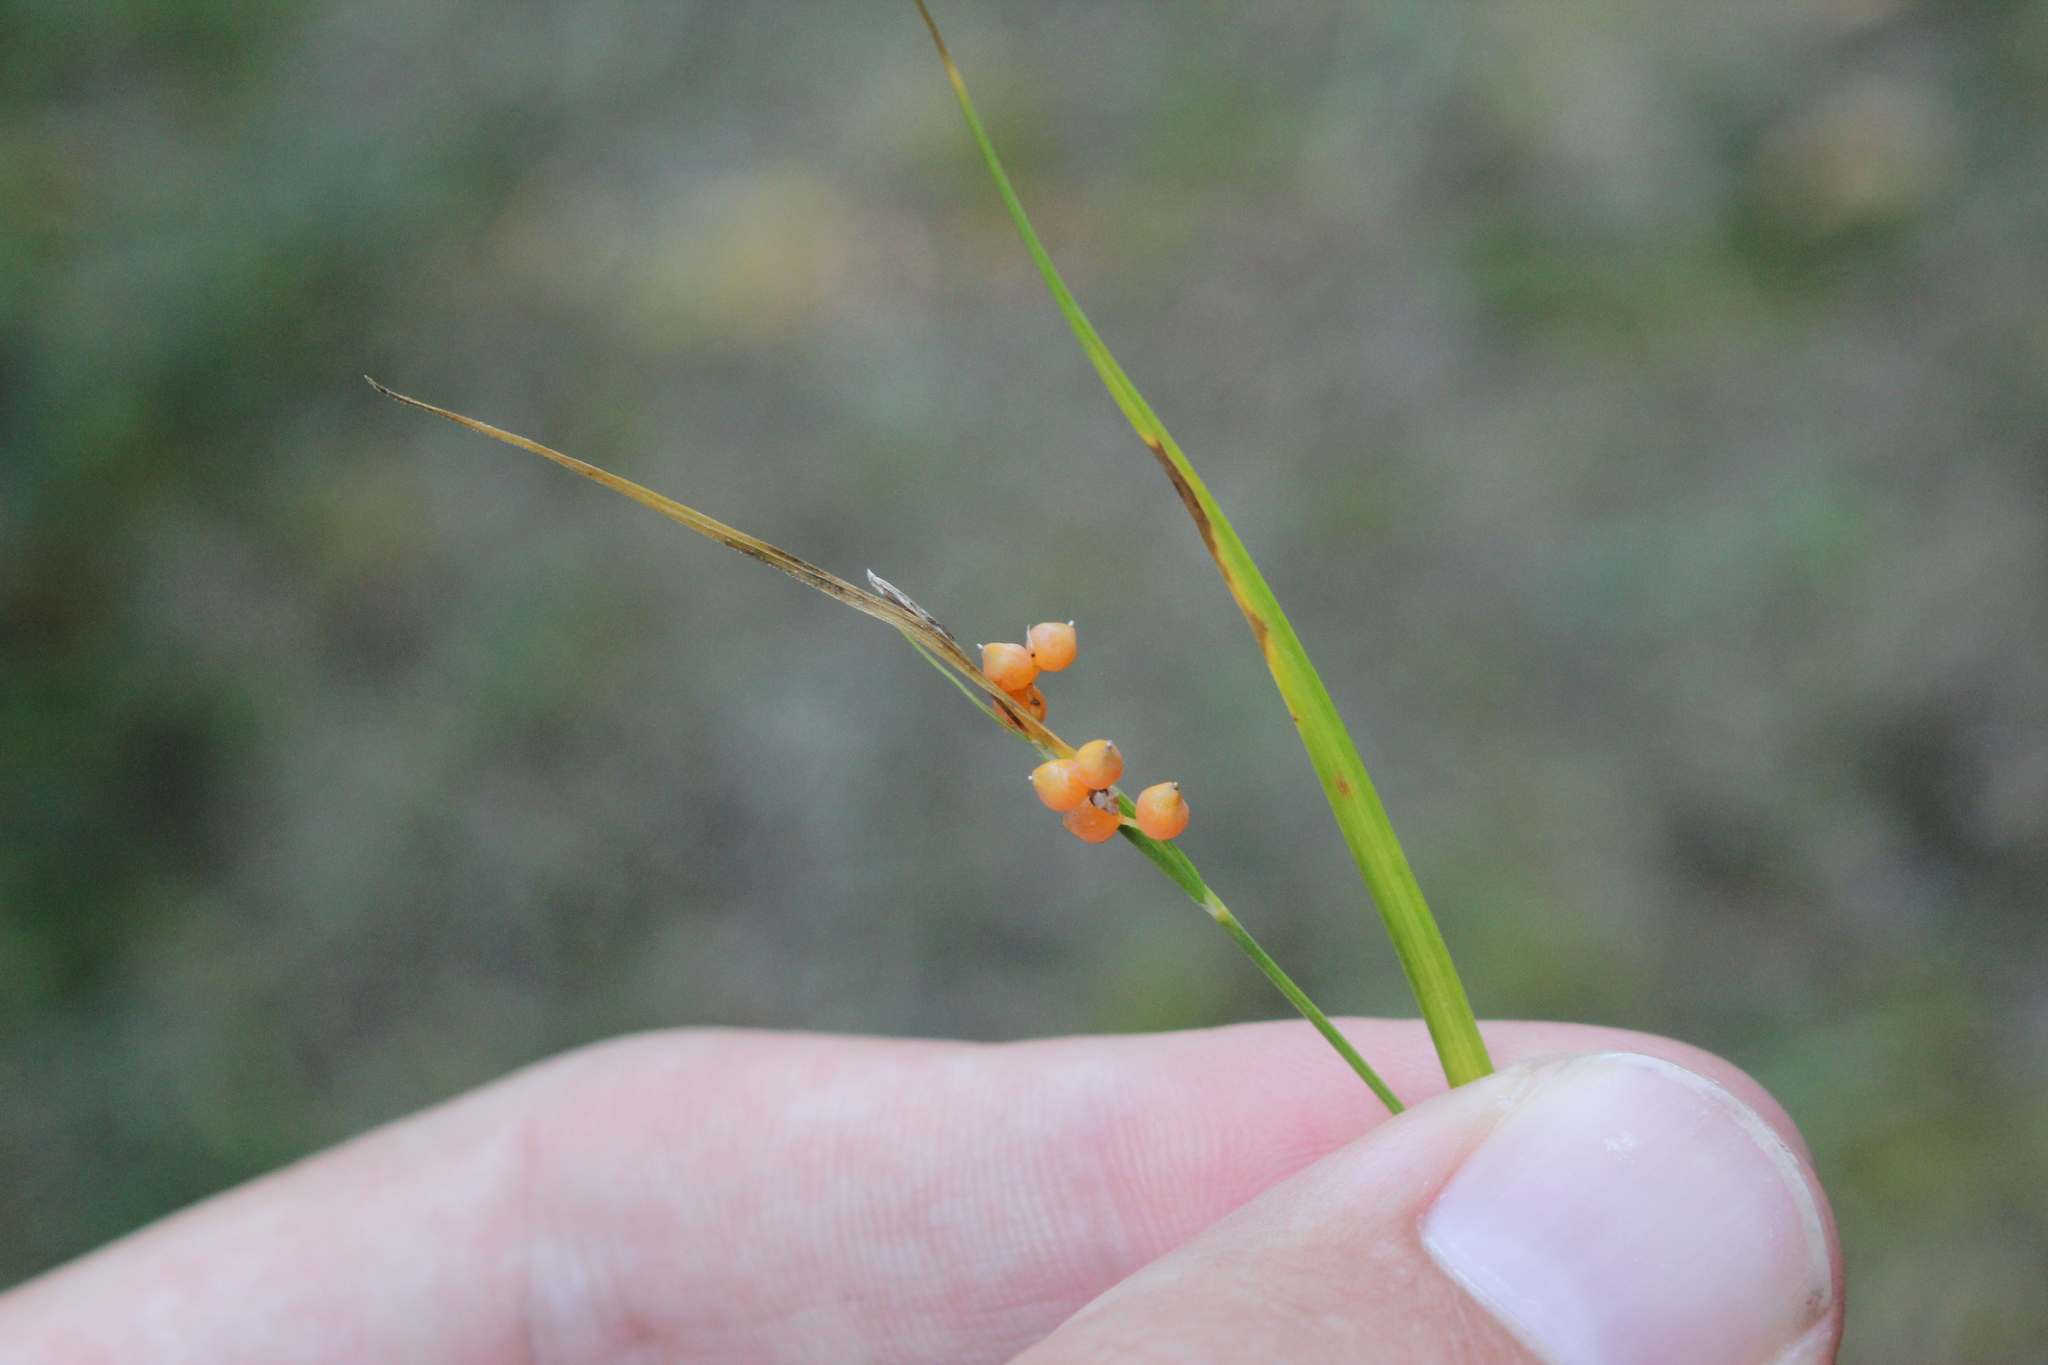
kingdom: Plantae
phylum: Tracheophyta
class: Liliopsida
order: Poales
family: Cyperaceae
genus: Carex
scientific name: Carex aurea
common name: Golden sedge
